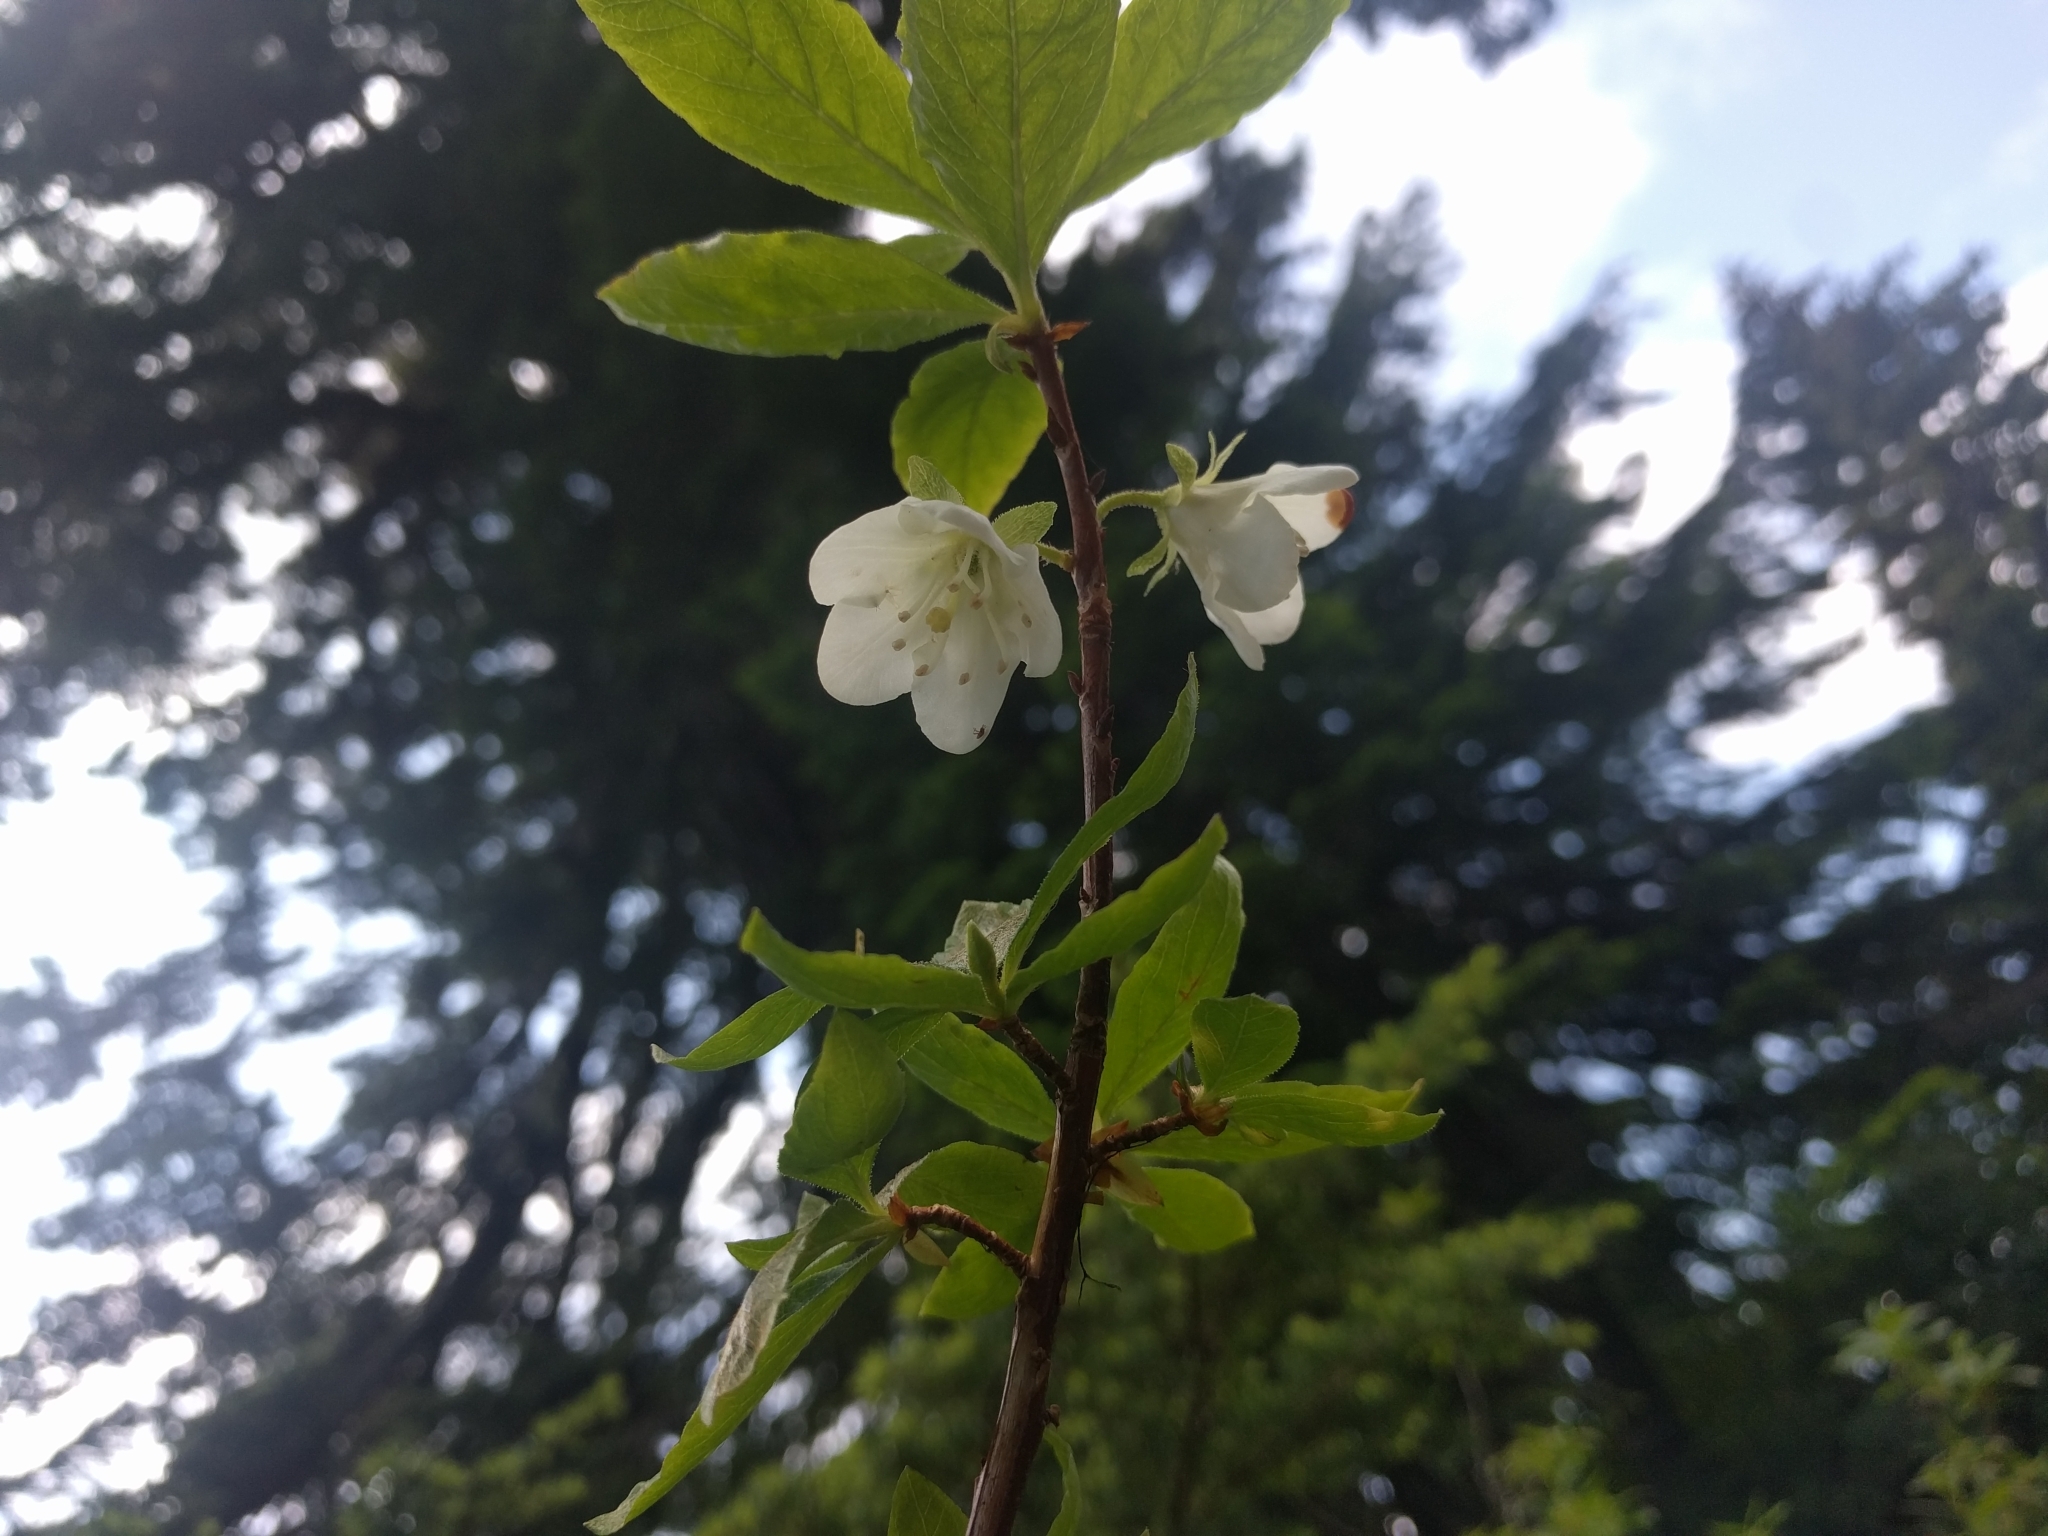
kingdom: Plantae
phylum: Tracheophyta
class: Magnoliopsida
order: Ericales
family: Ericaceae
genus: Rhododendron
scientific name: Rhododendron albiflorum
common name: White rhododendron
